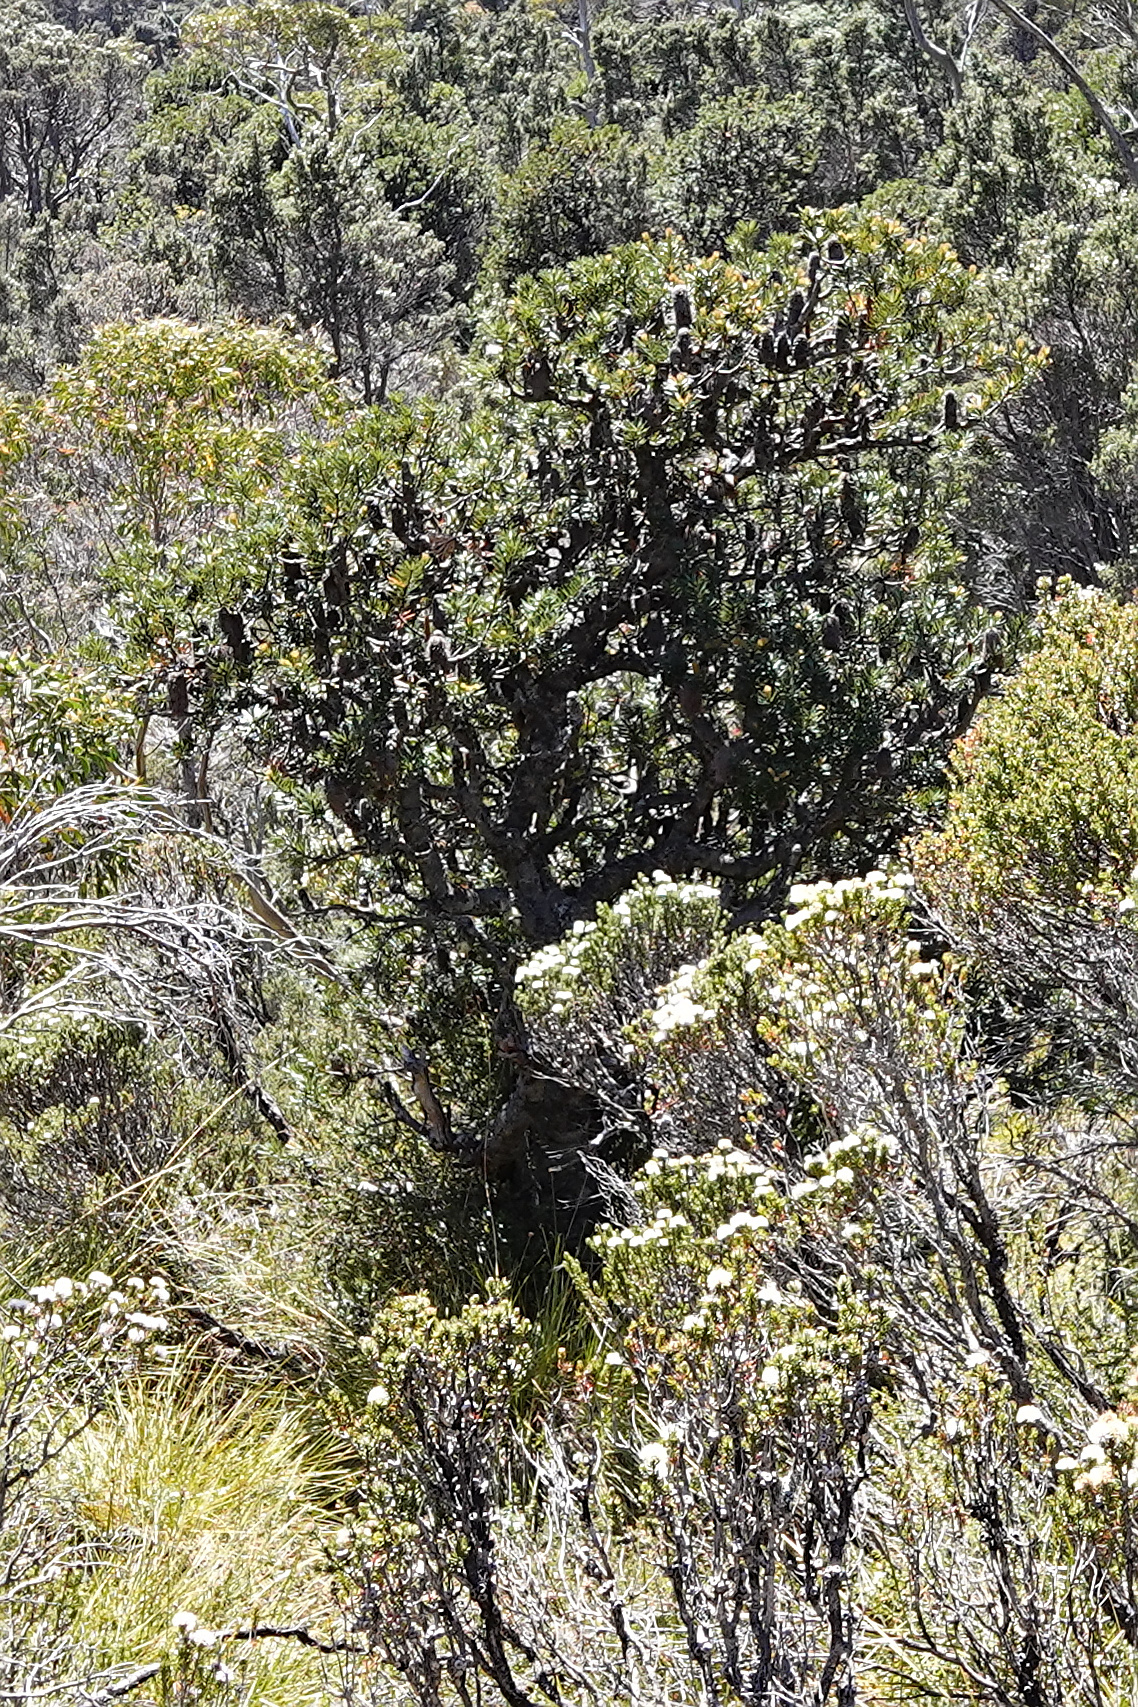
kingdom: Plantae
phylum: Tracheophyta
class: Magnoliopsida
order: Proteales
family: Proteaceae
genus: Banksia
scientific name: Banksia marginata
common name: Silver banksia
